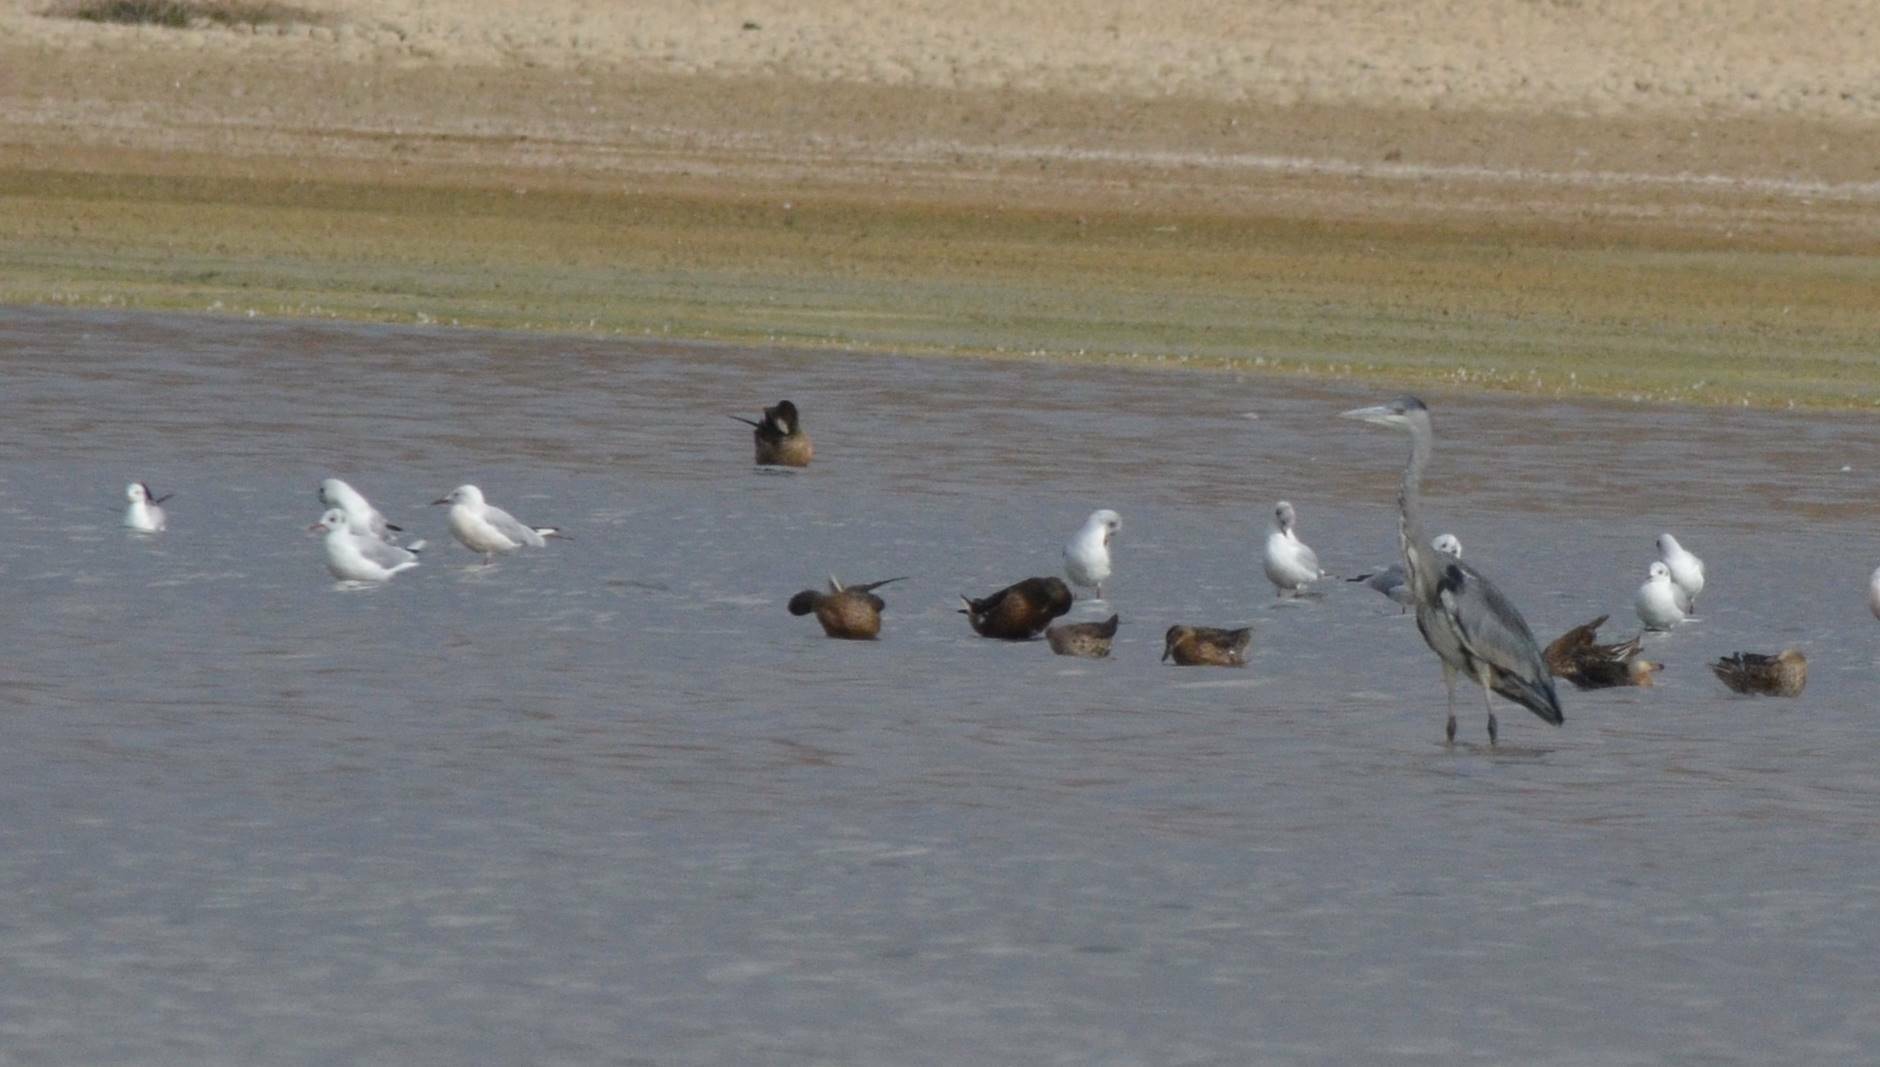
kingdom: Animalia
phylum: Chordata
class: Aves
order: Charadriiformes
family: Laridae
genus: Chroicocephalus
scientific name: Chroicocephalus ridibundus
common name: Black-headed gull
